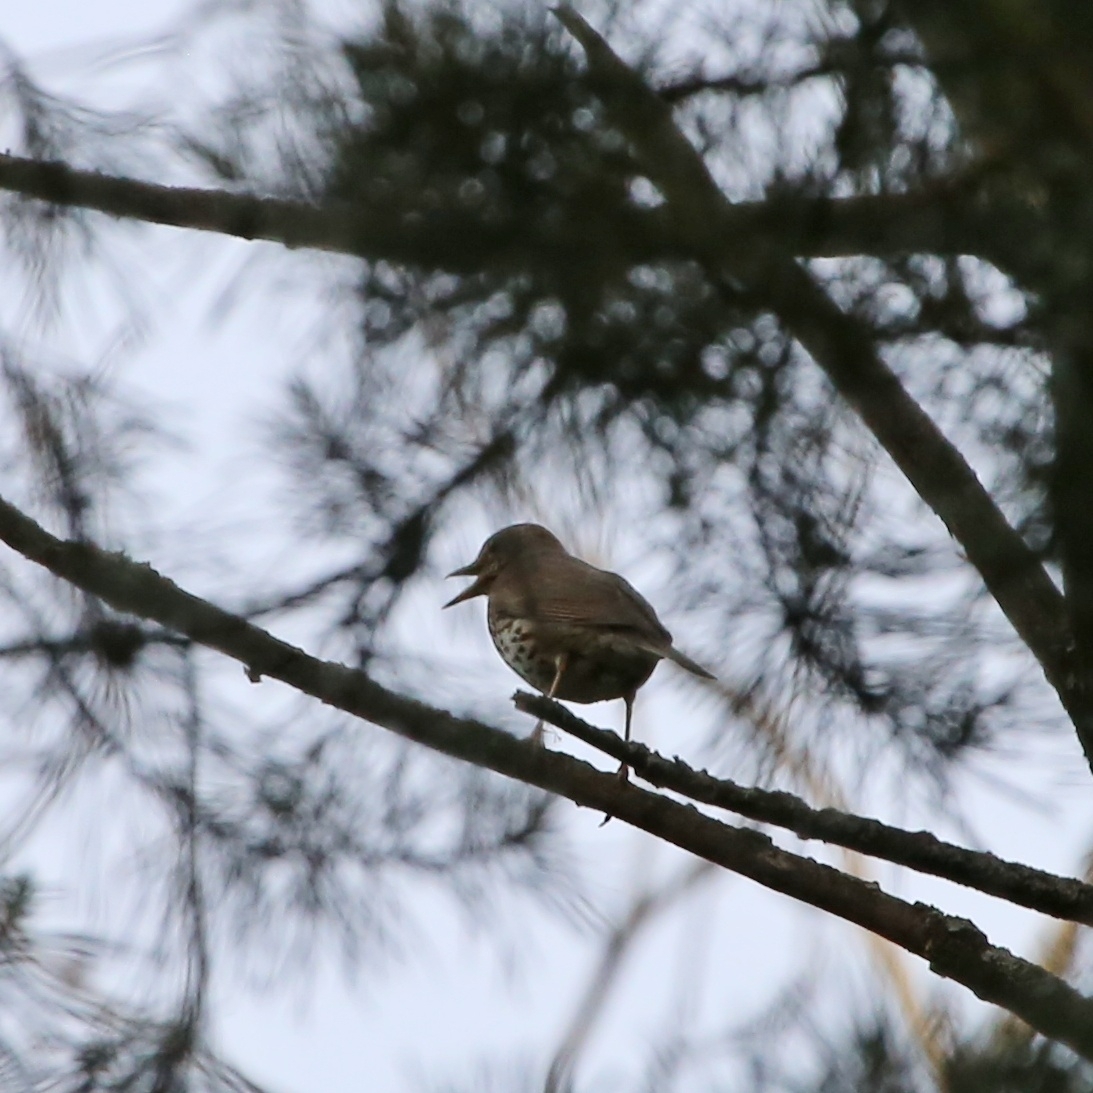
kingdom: Animalia
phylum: Chordata
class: Aves
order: Passeriformes
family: Turdidae
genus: Turdus
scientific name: Turdus philomelos
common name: Song thrush
